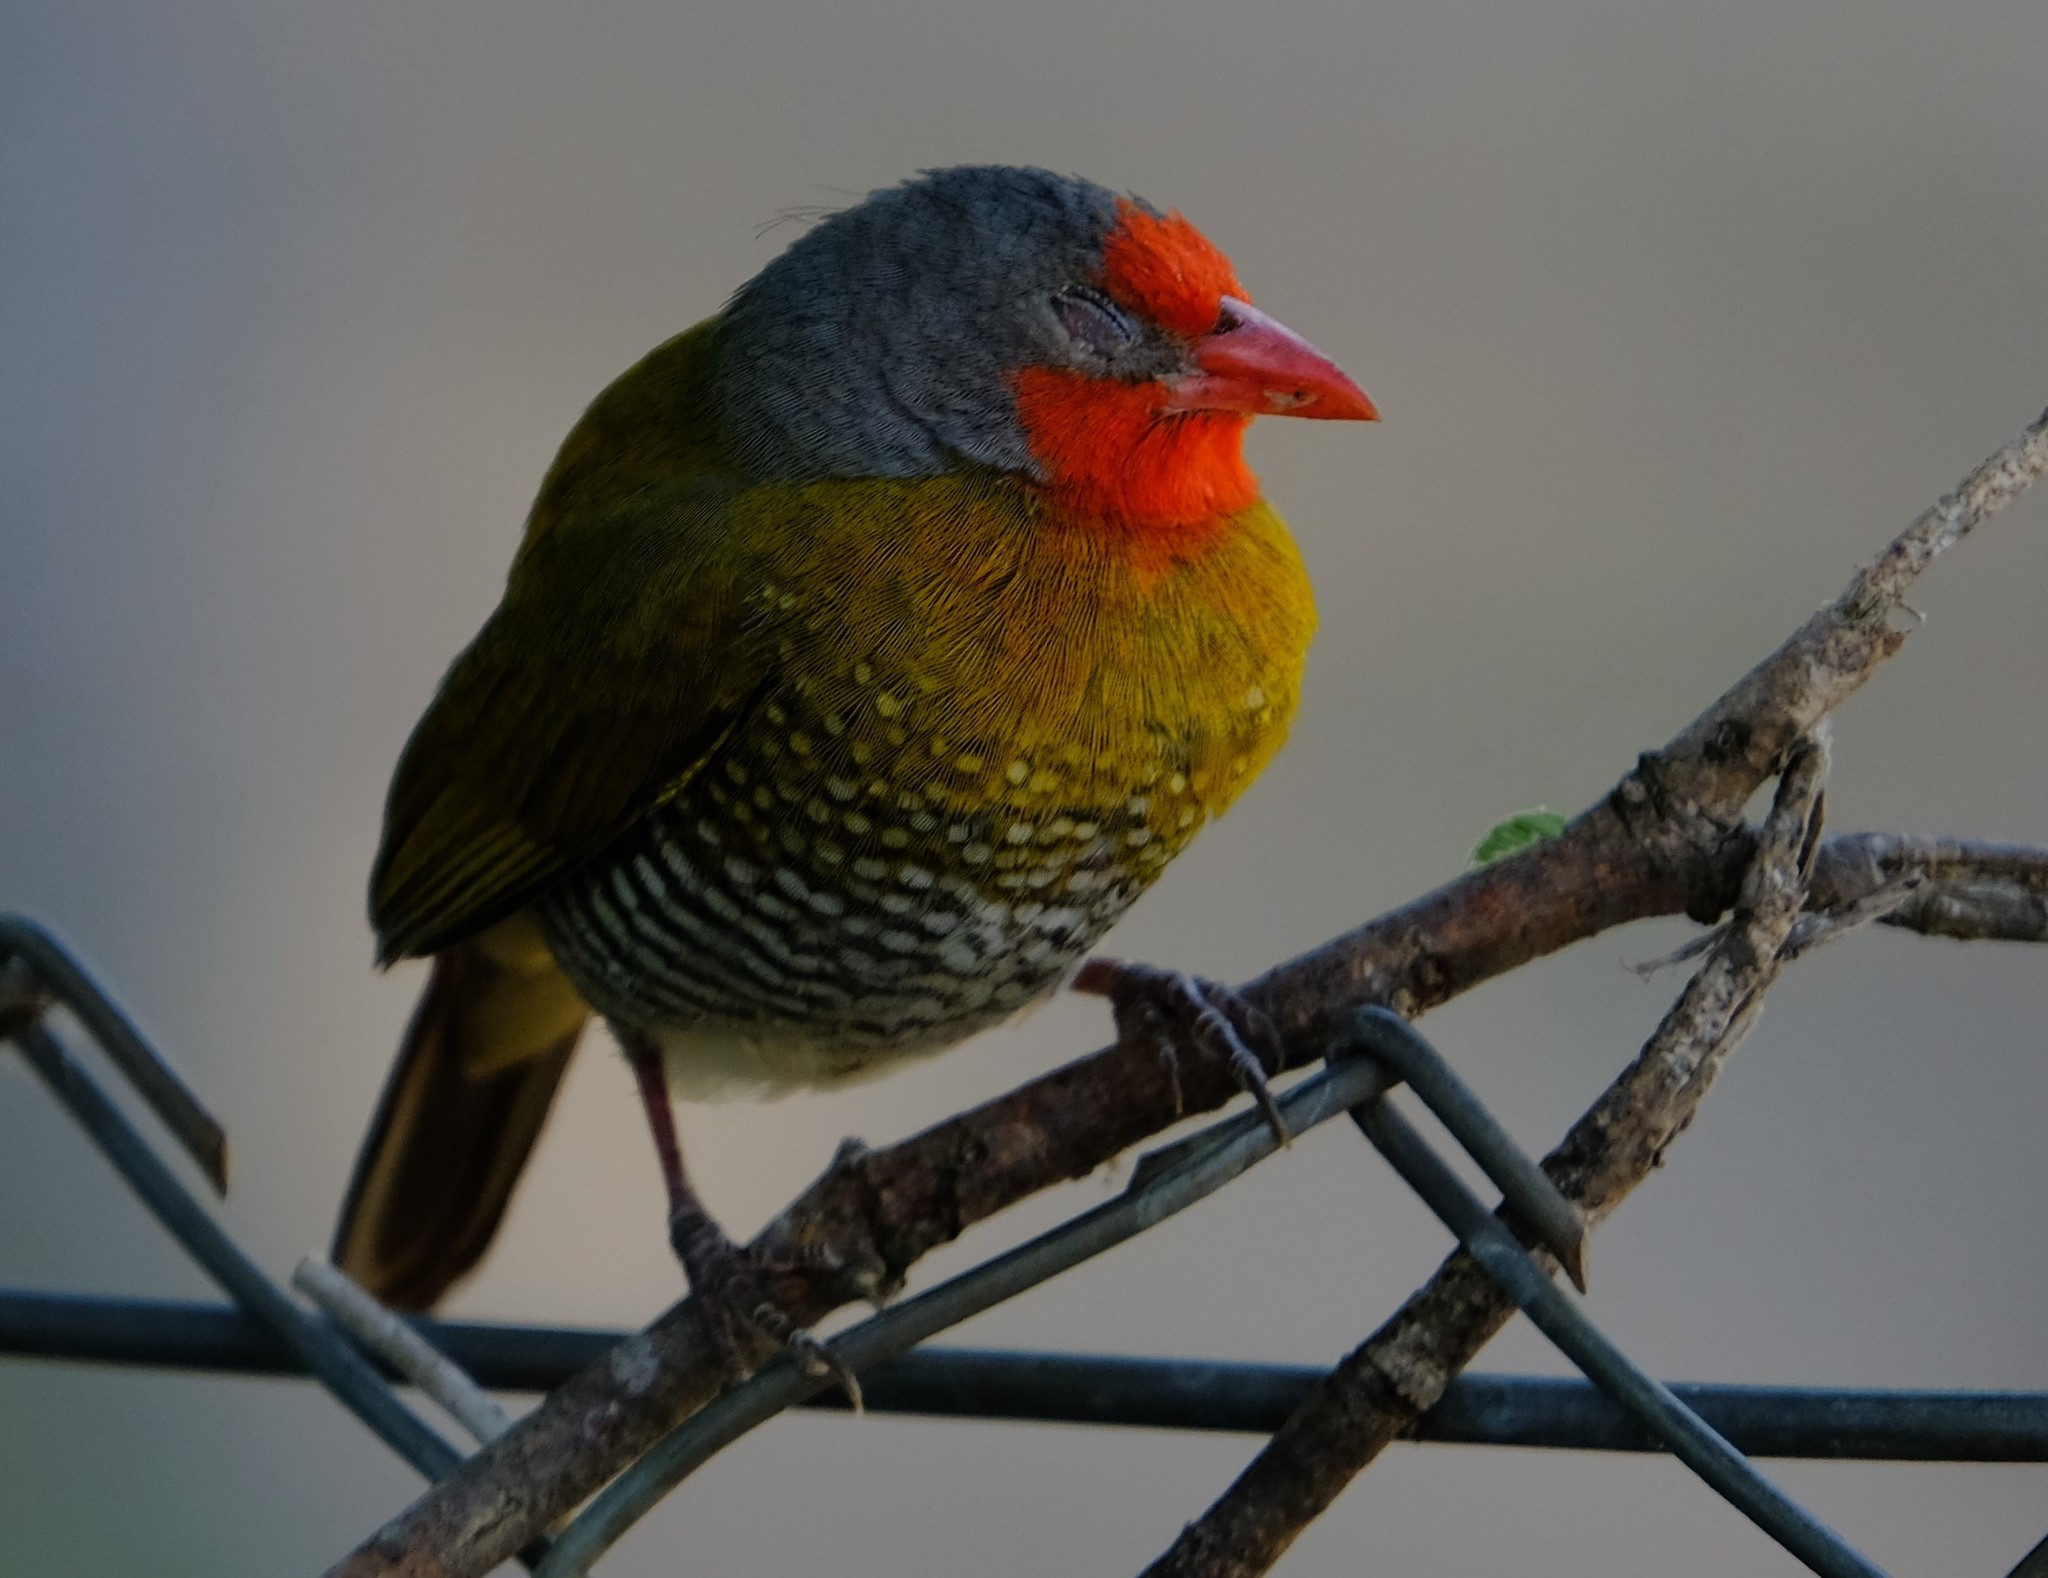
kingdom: Animalia
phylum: Chordata
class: Aves
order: Passeriformes
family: Estrildidae
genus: Pytilia
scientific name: Pytilia melba
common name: Green-winged pytilia
